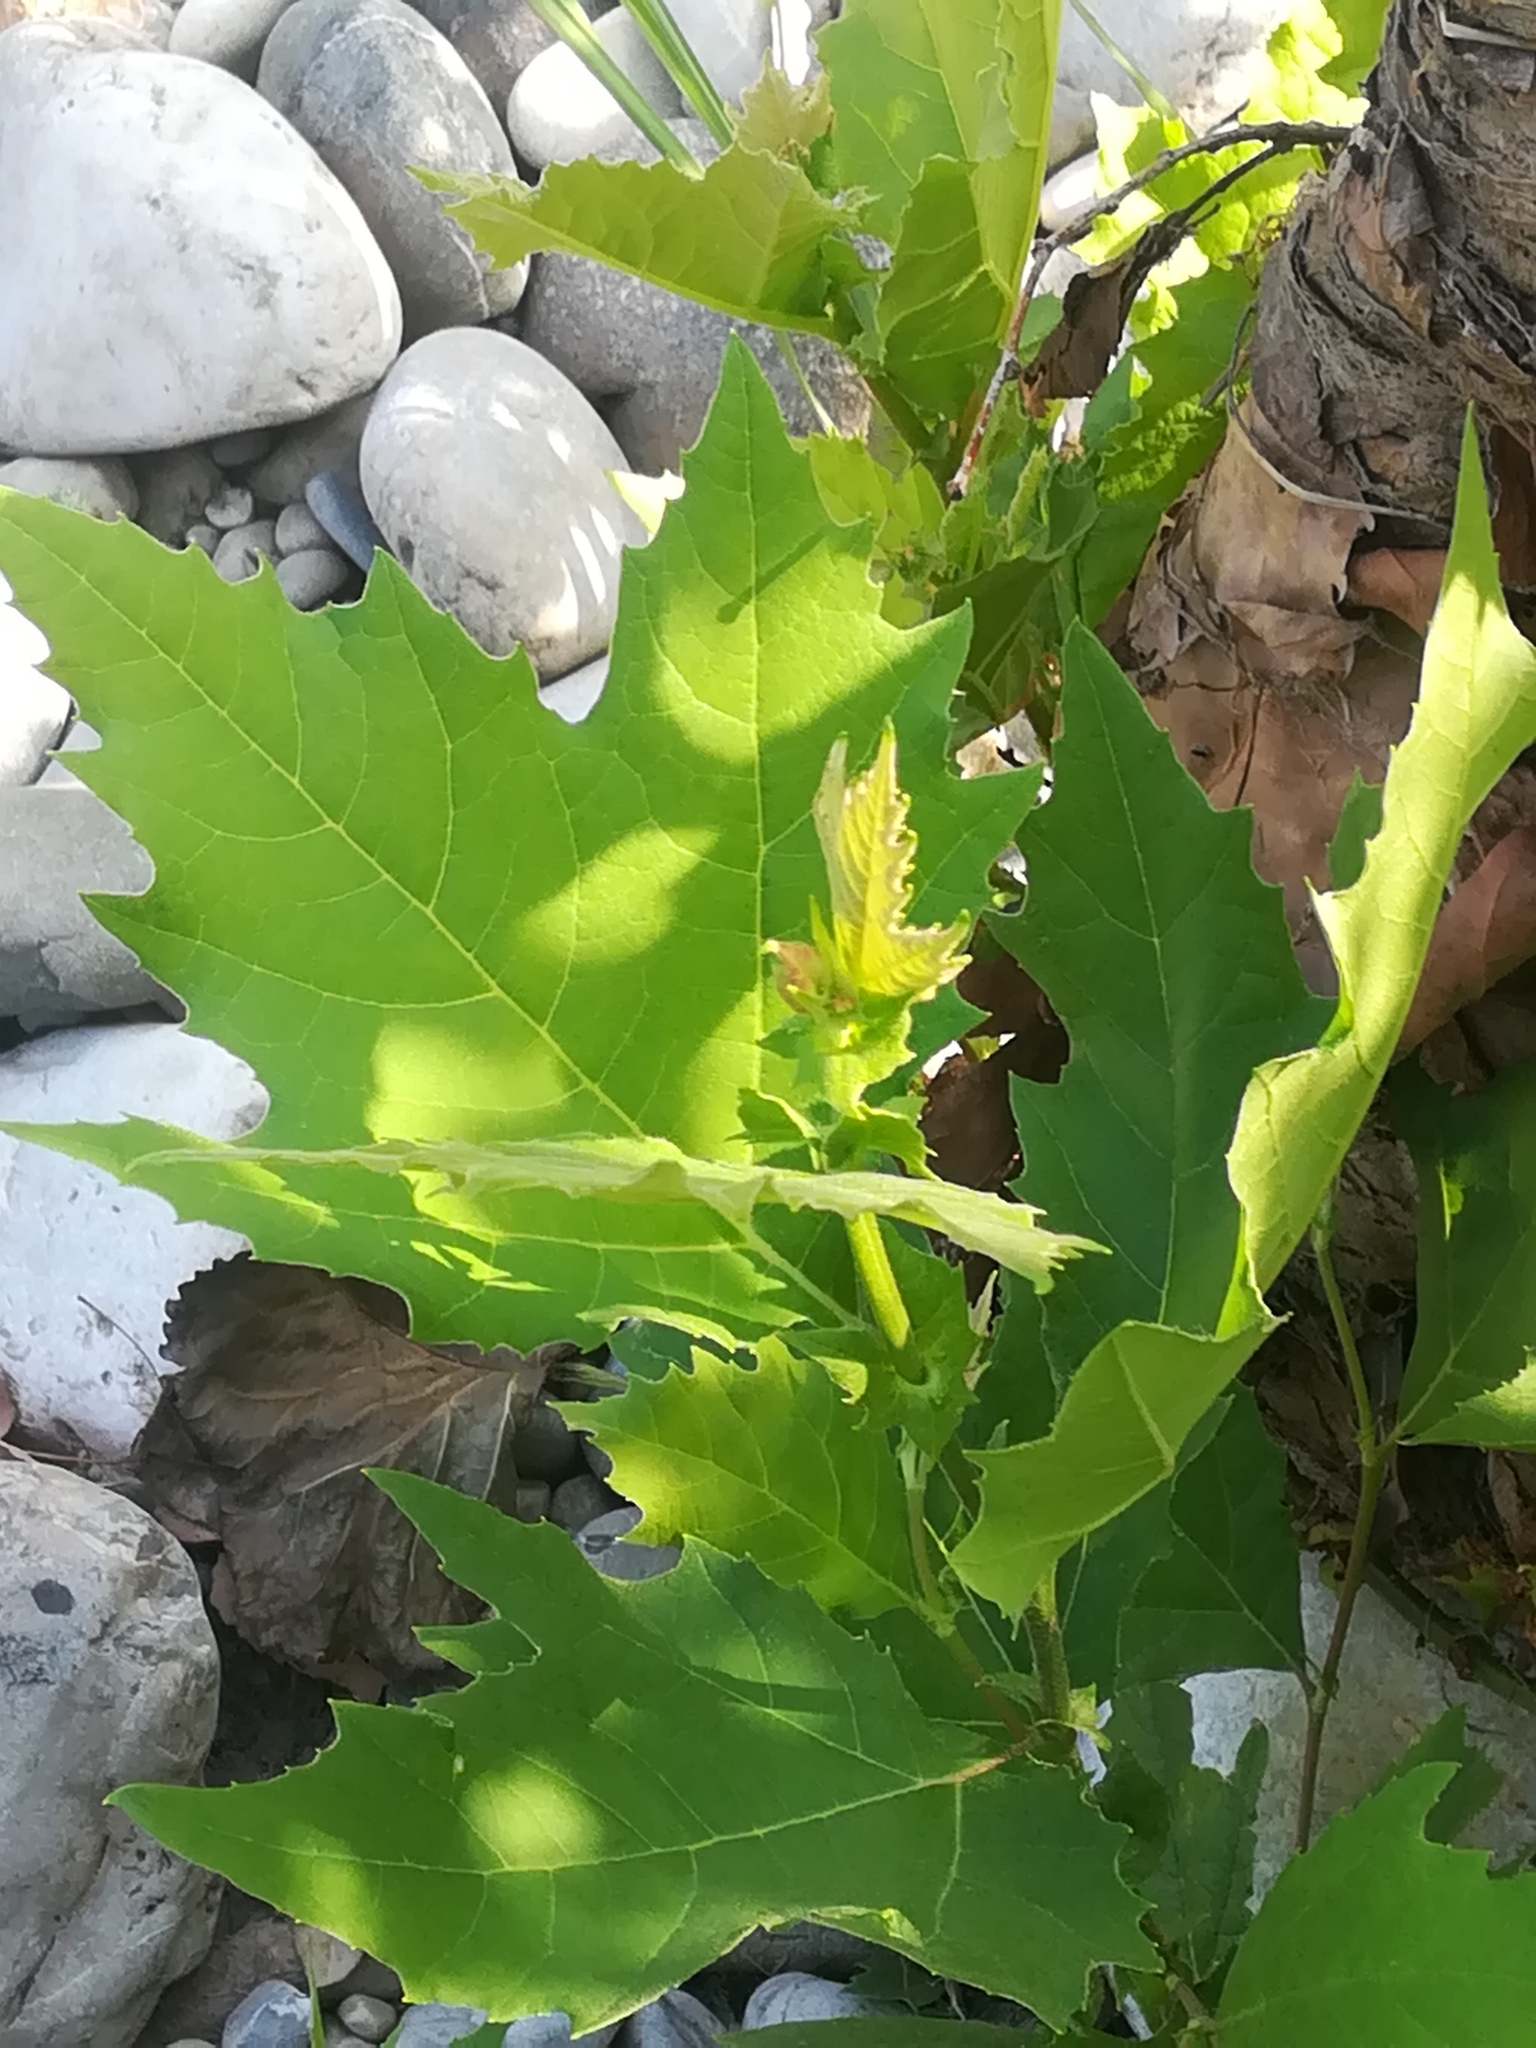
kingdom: Plantae
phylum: Tracheophyta
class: Magnoliopsida
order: Proteales
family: Platanaceae
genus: Platanus
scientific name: Platanus hispanica
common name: London plane
